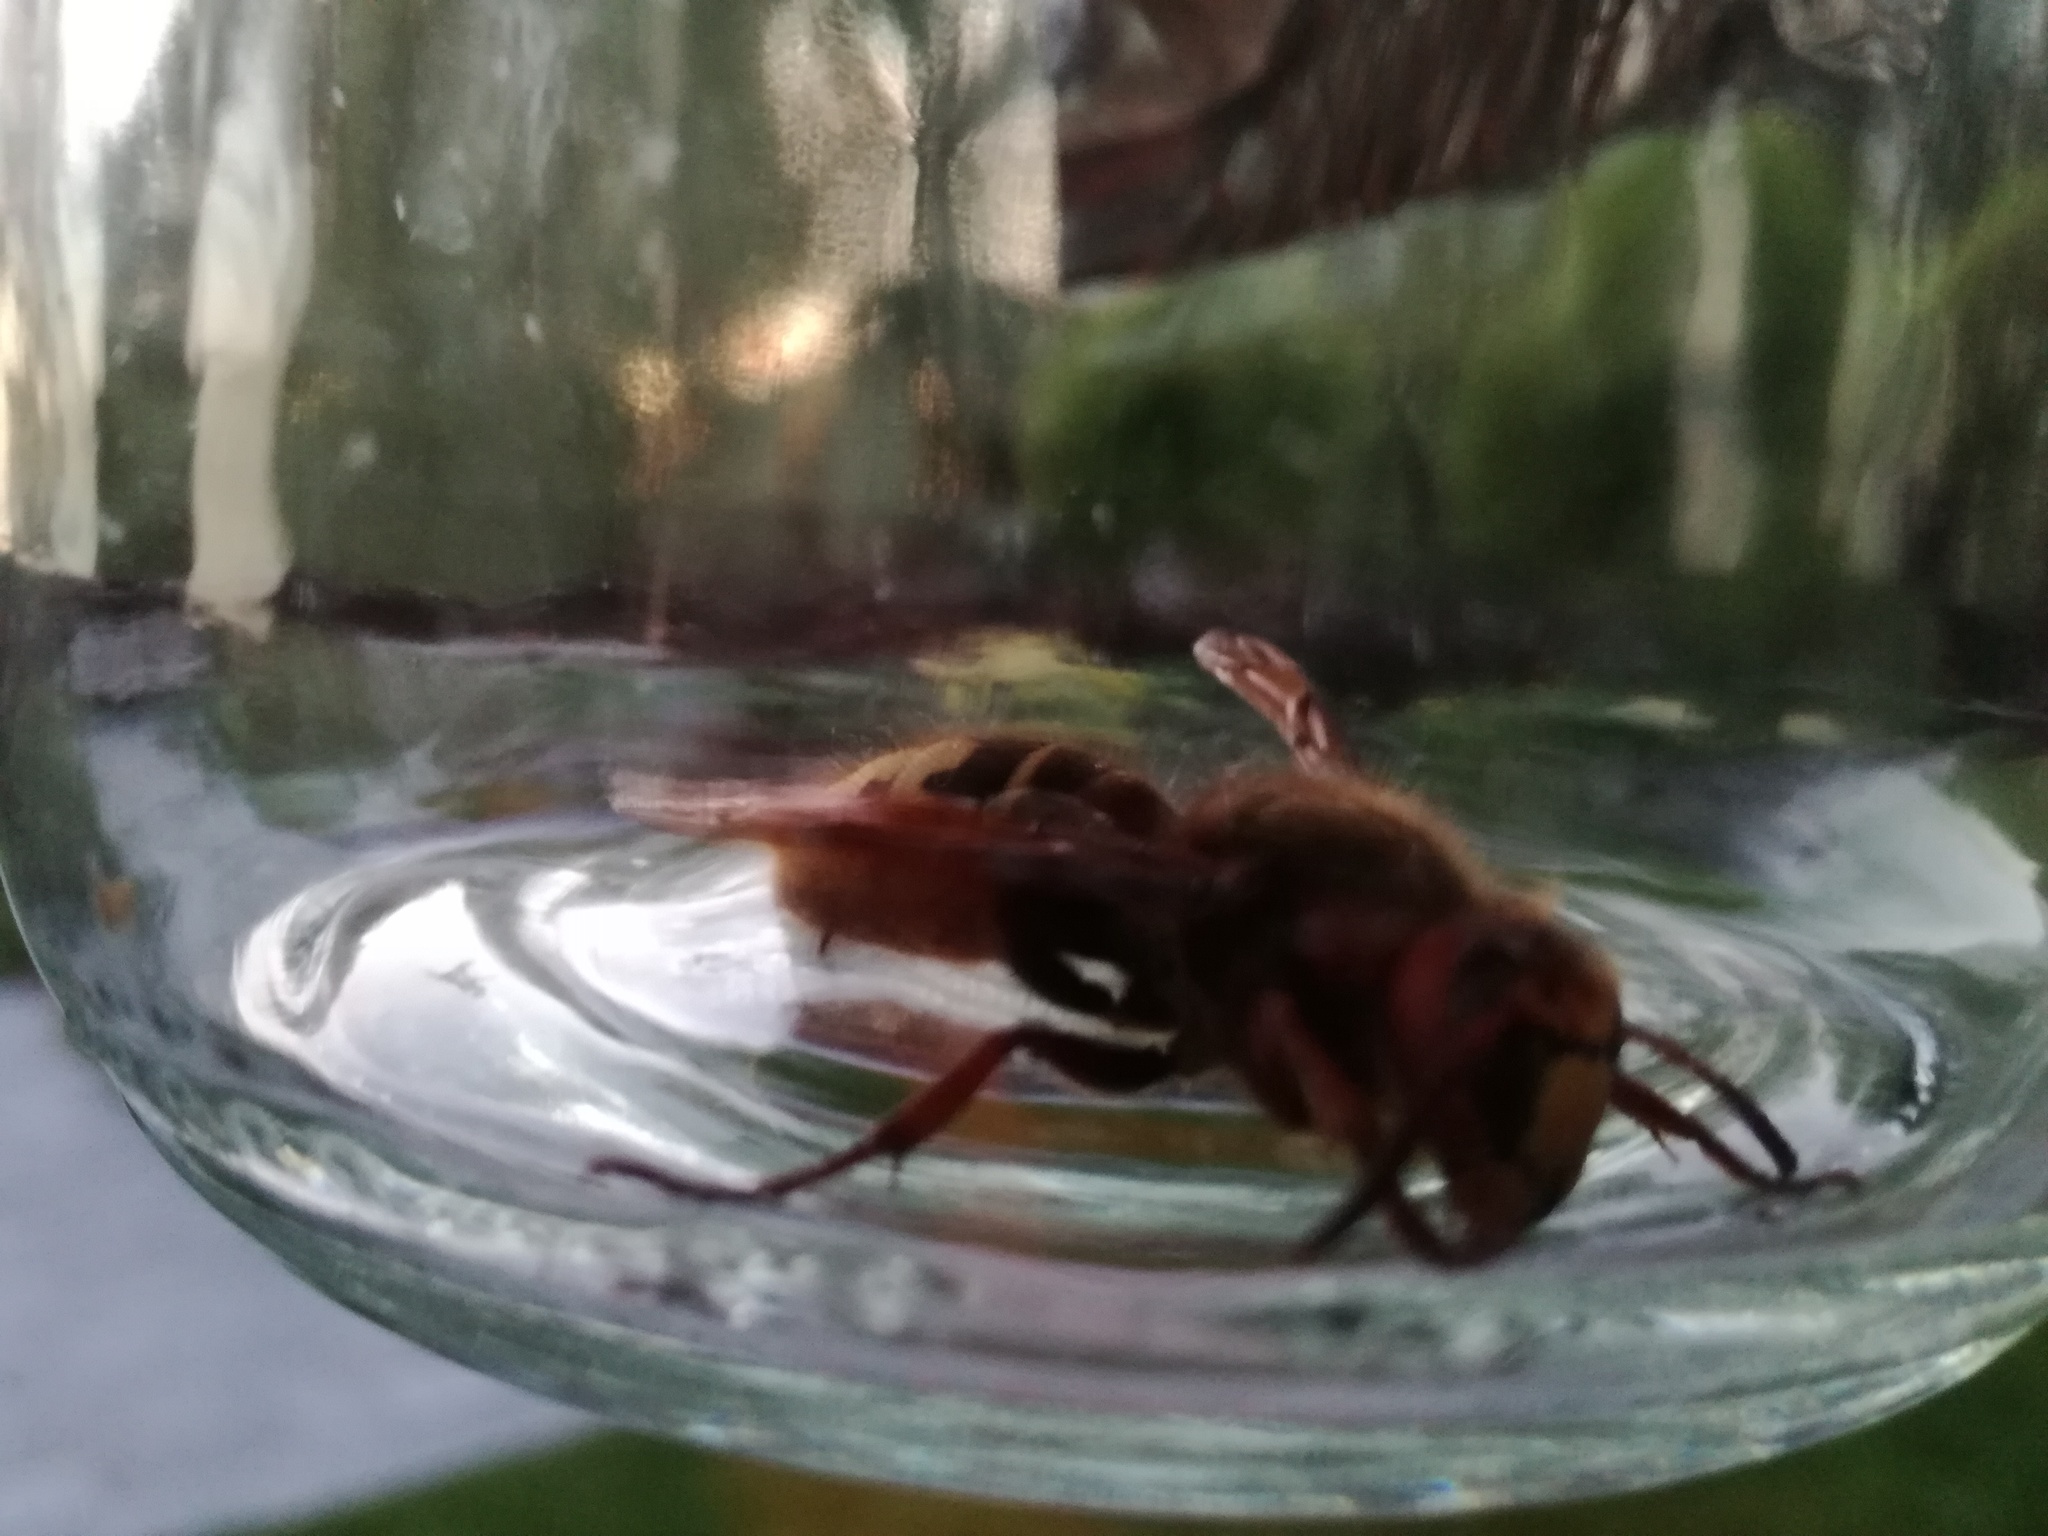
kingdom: Animalia
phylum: Arthropoda
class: Insecta
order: Hymenoptera
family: Vespidae
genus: Vespa
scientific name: Vespa crabro
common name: Hornet
